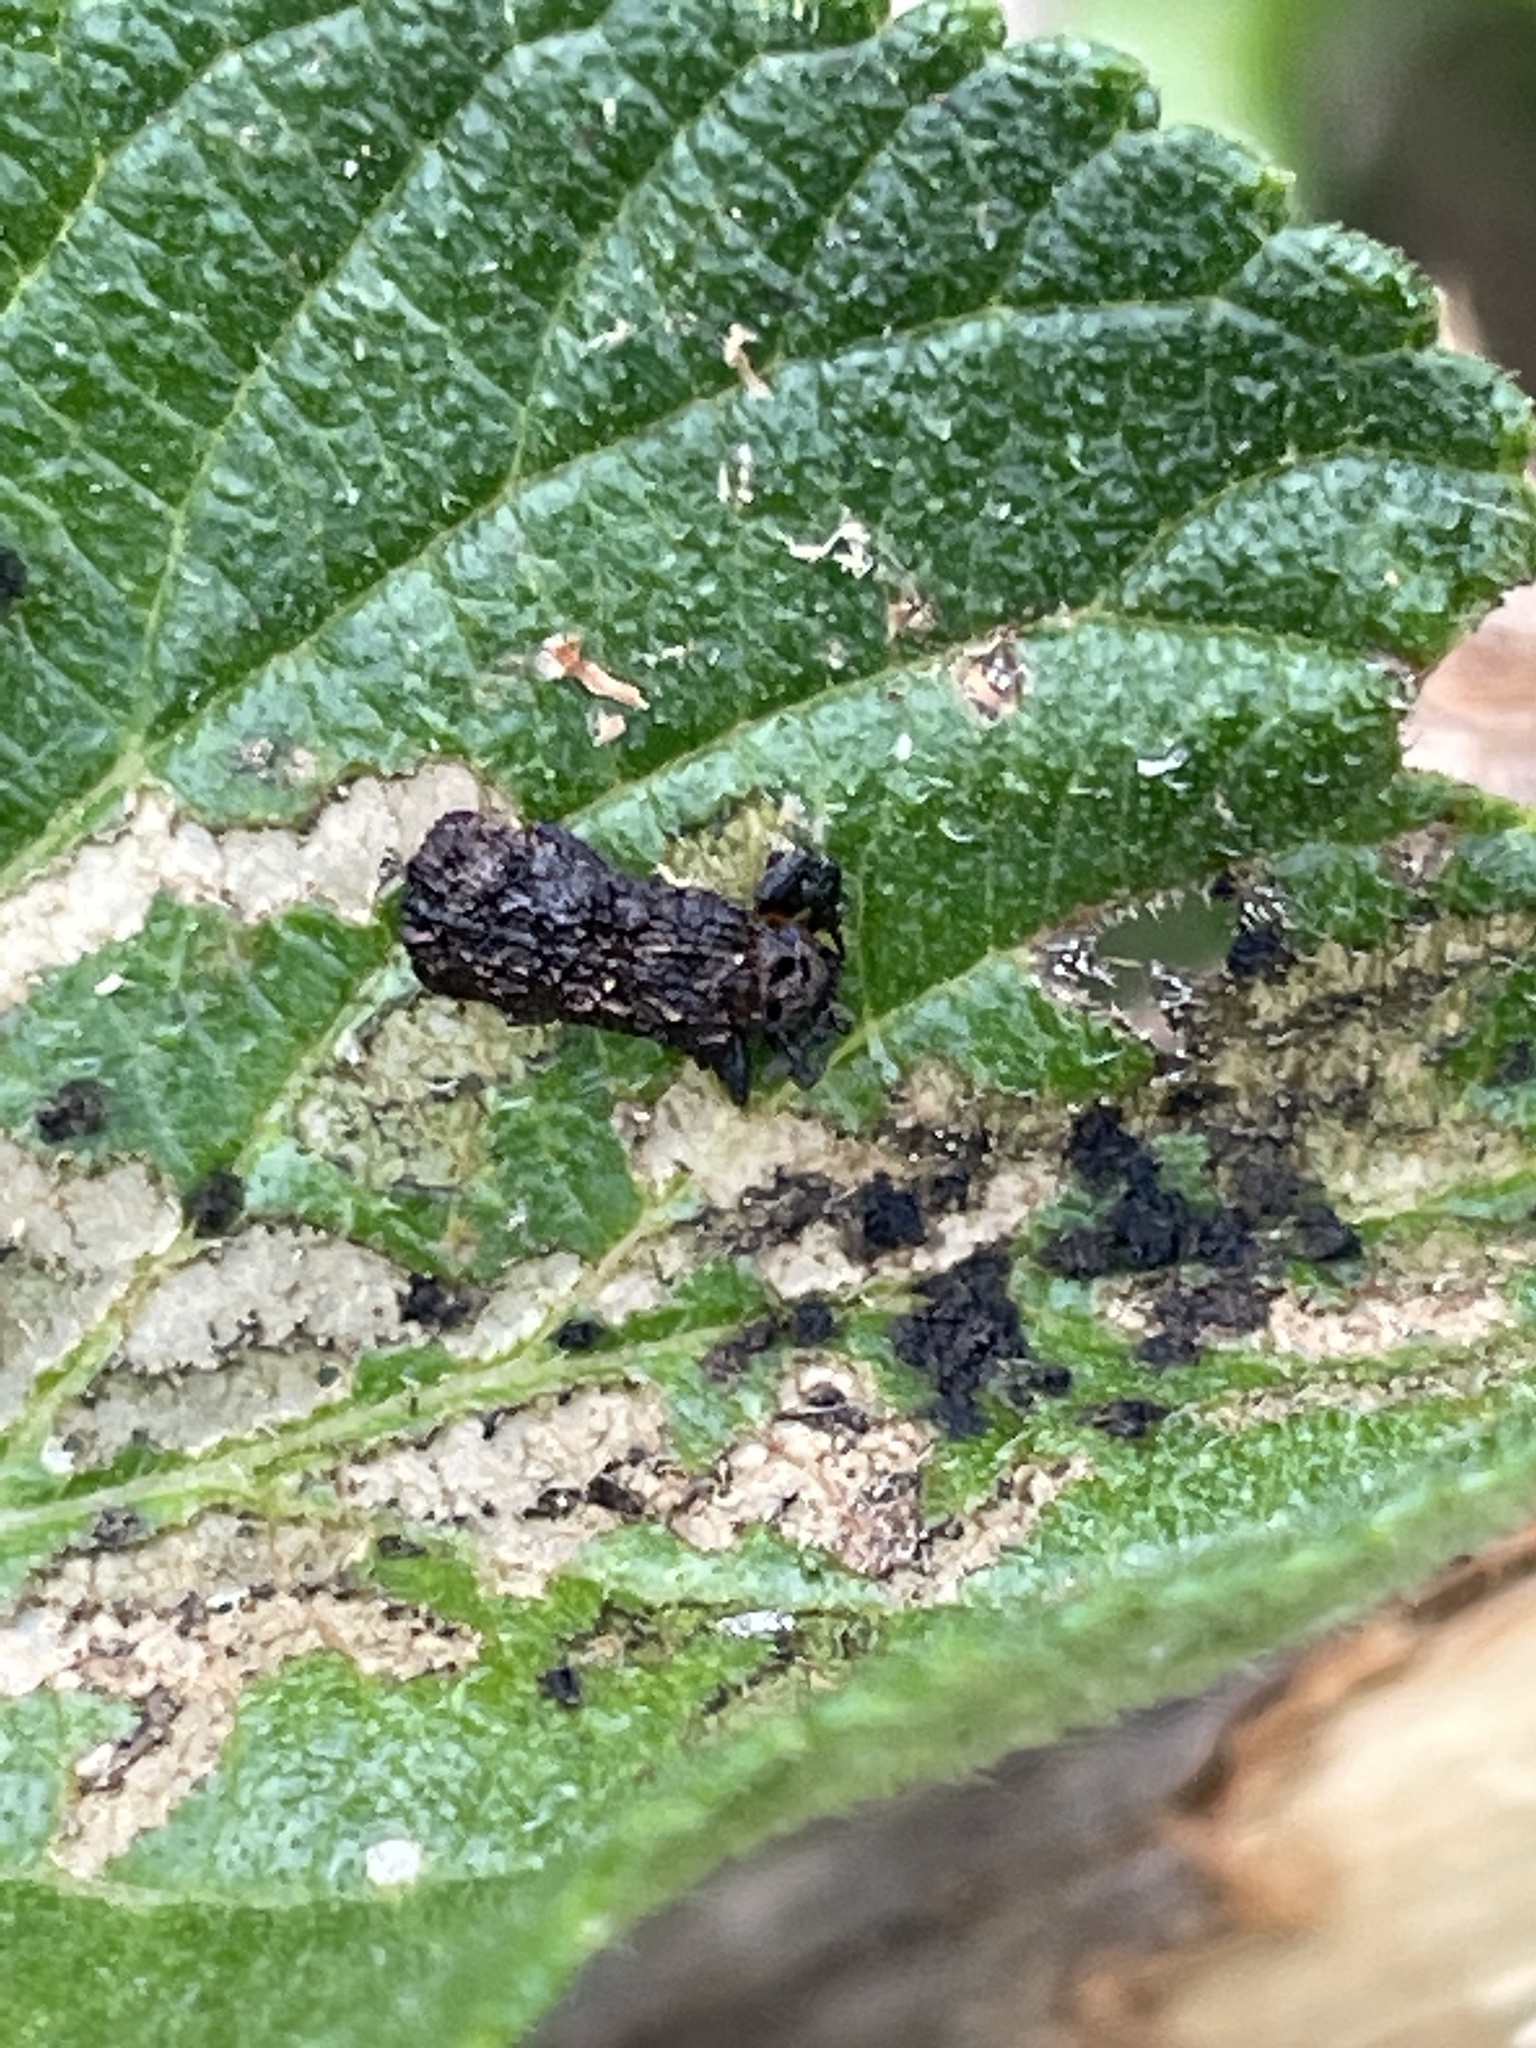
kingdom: Animalia
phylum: Arthropoda
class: Insecta
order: Coleoptera
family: Chrysomelidae
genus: Octotoma
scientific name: Octotoma scabripennis
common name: Beetle
